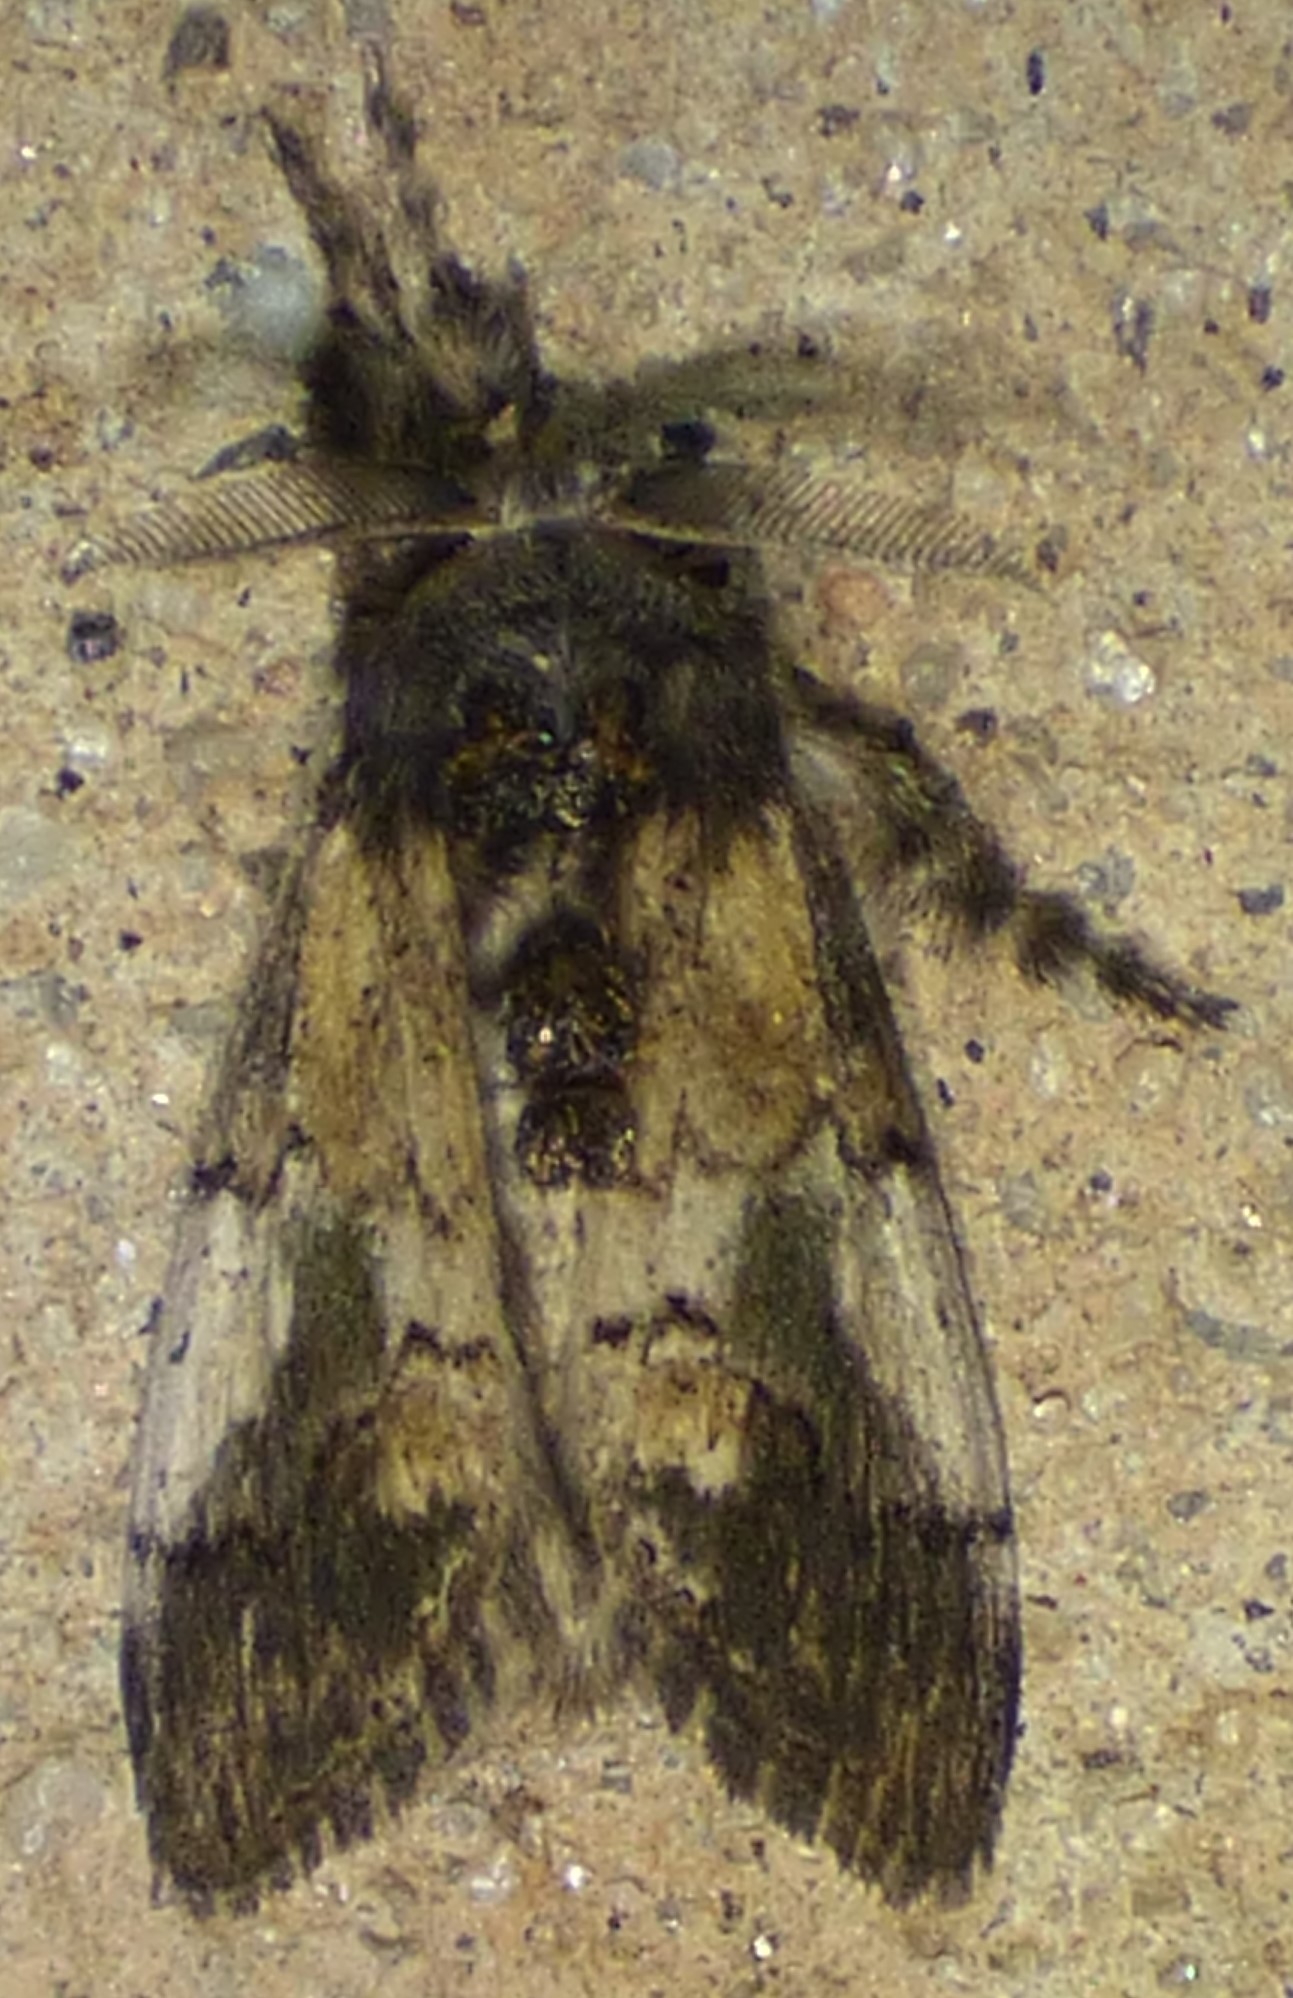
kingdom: Animalia
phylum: Arthropoda
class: Insecta
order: Lepidoptera
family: Erebidae
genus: Dasychira
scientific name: Dasychira meridionalis
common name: Southern tussock moth
